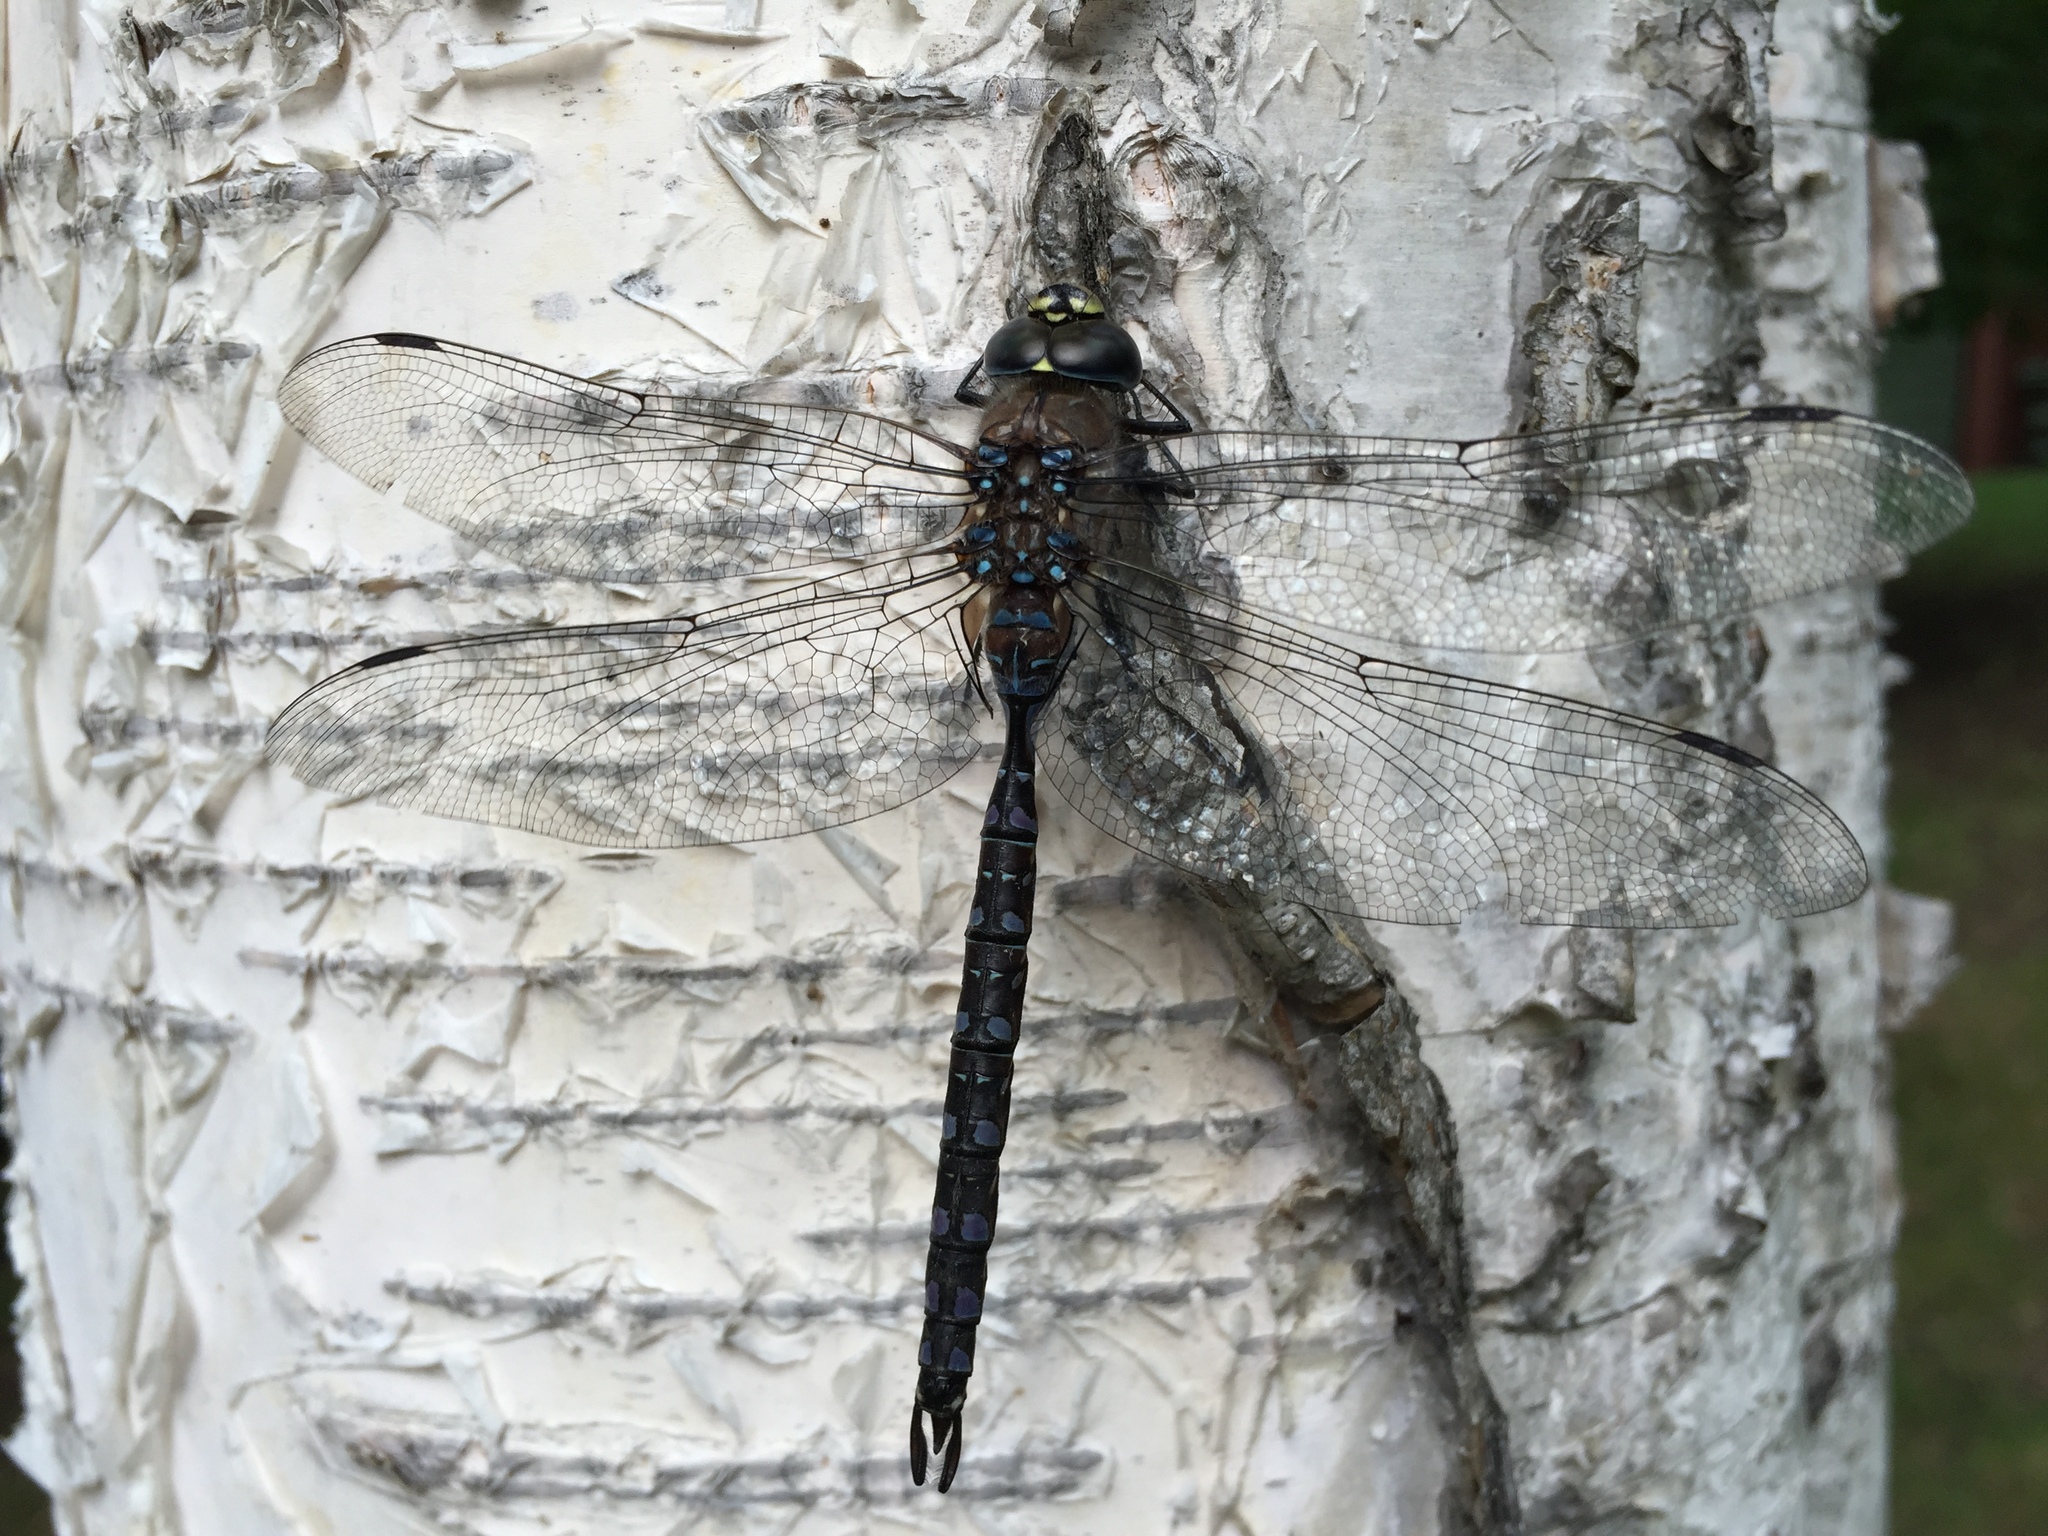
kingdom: Animalia
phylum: Arthropoda
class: Insecta
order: Odonata
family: Aeshnidae
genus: Aeshna
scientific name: Aeshna interrupta
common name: Variable darner
